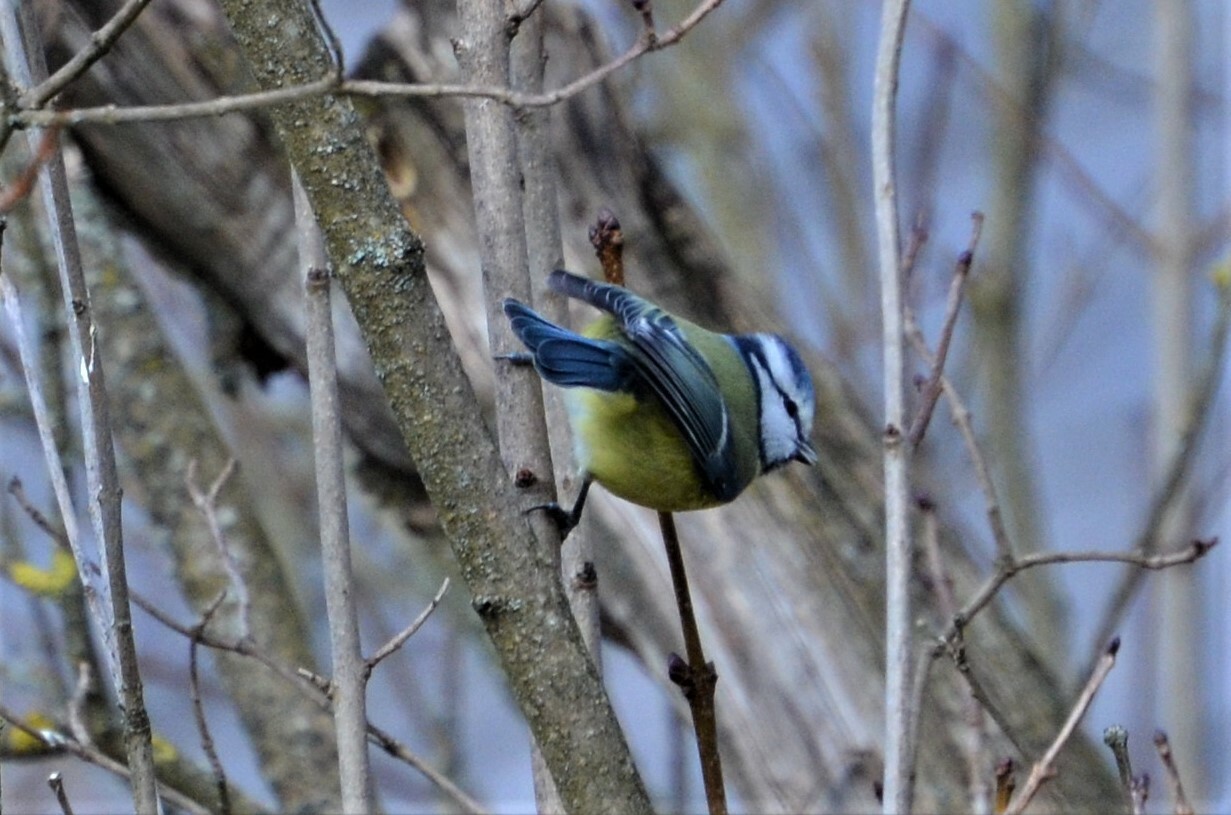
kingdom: Animalia
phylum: Chordata
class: Aves
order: Passeriformes
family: Paridae
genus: Cyanistes
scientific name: Cyanistes caeruleus
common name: Eurasian blue tit
